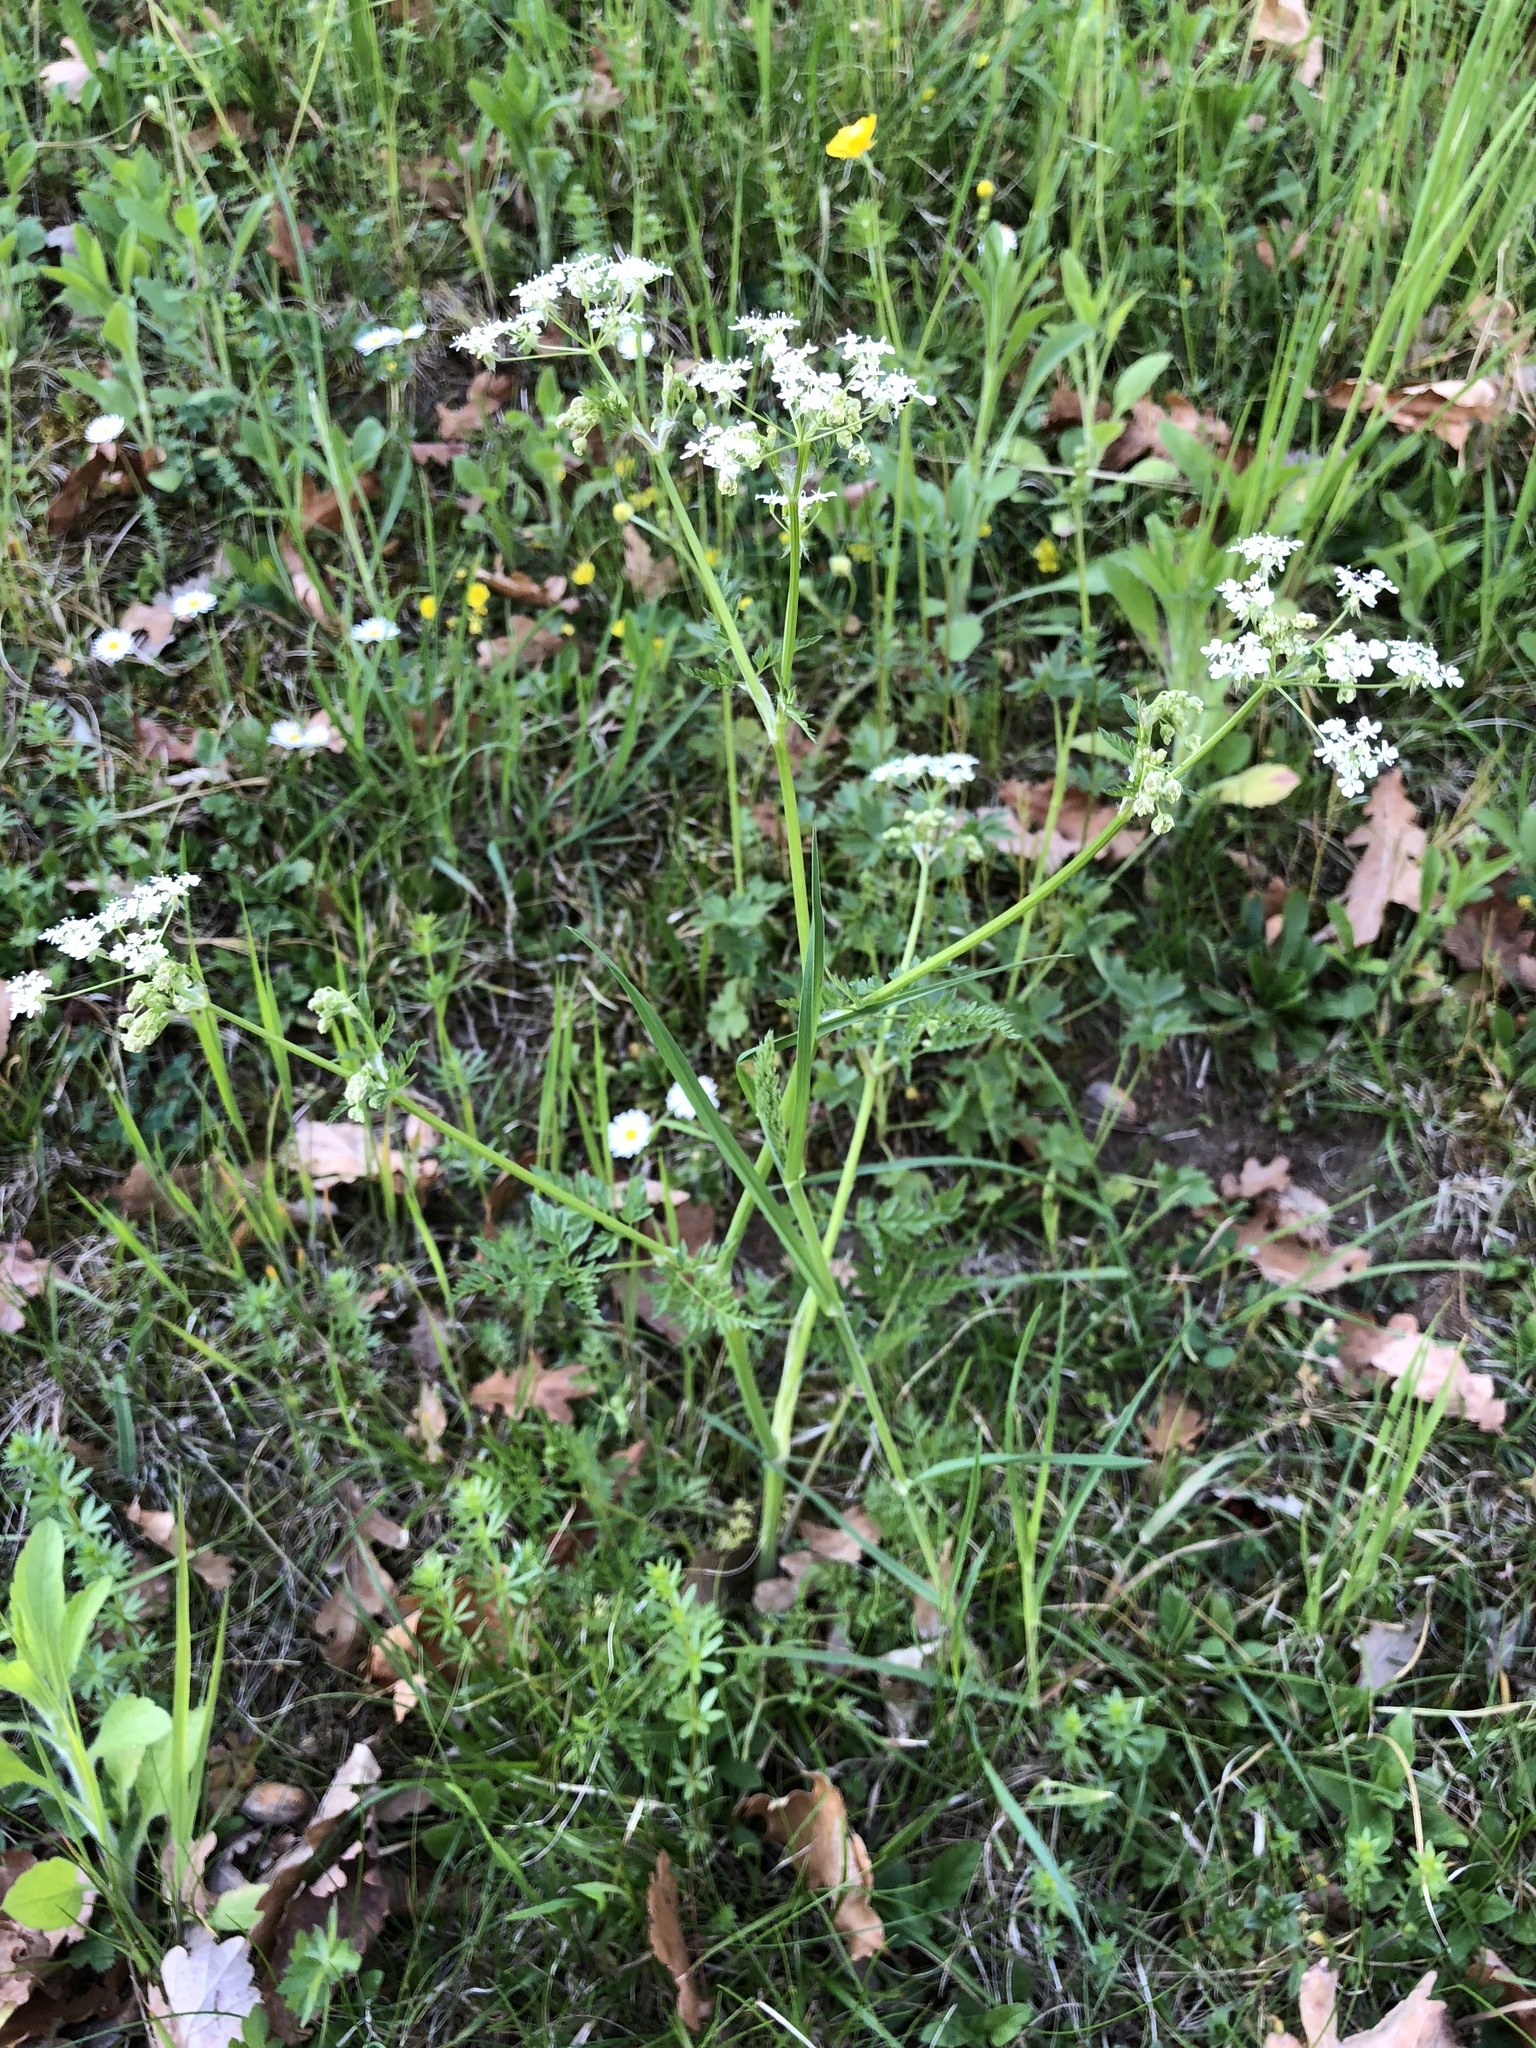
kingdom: Plantae
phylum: Tracheophyta
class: Magnoliopsida
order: Apiales
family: Apiaceae
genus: Anthriscus
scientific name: Anthriscus sylvestris
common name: Cow parsley
